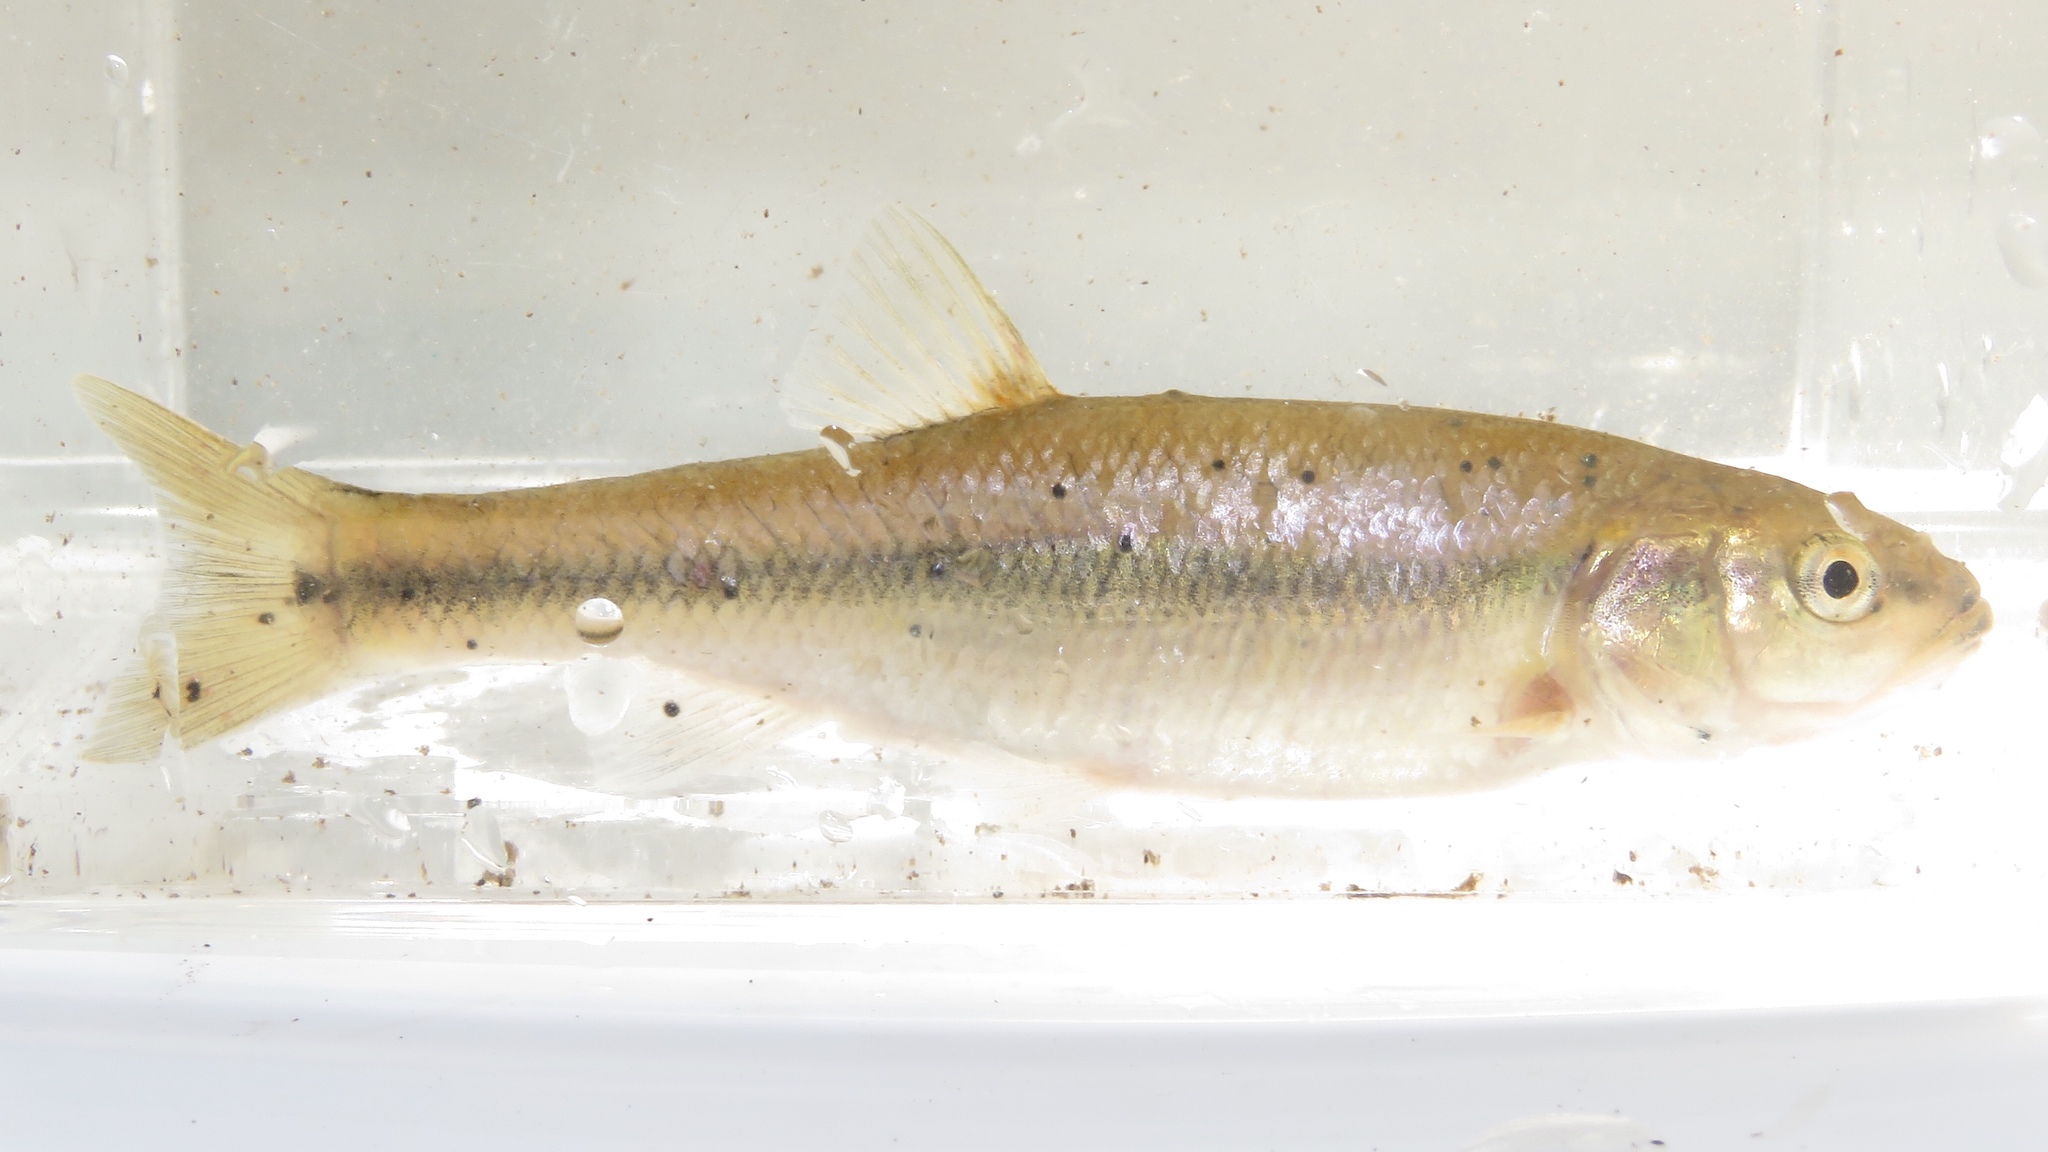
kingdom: Animalia
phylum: Chordata
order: Cypriniformes
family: Cyprinidae
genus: Semotilus
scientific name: Semotilus atromaculatus
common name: Creek chub
